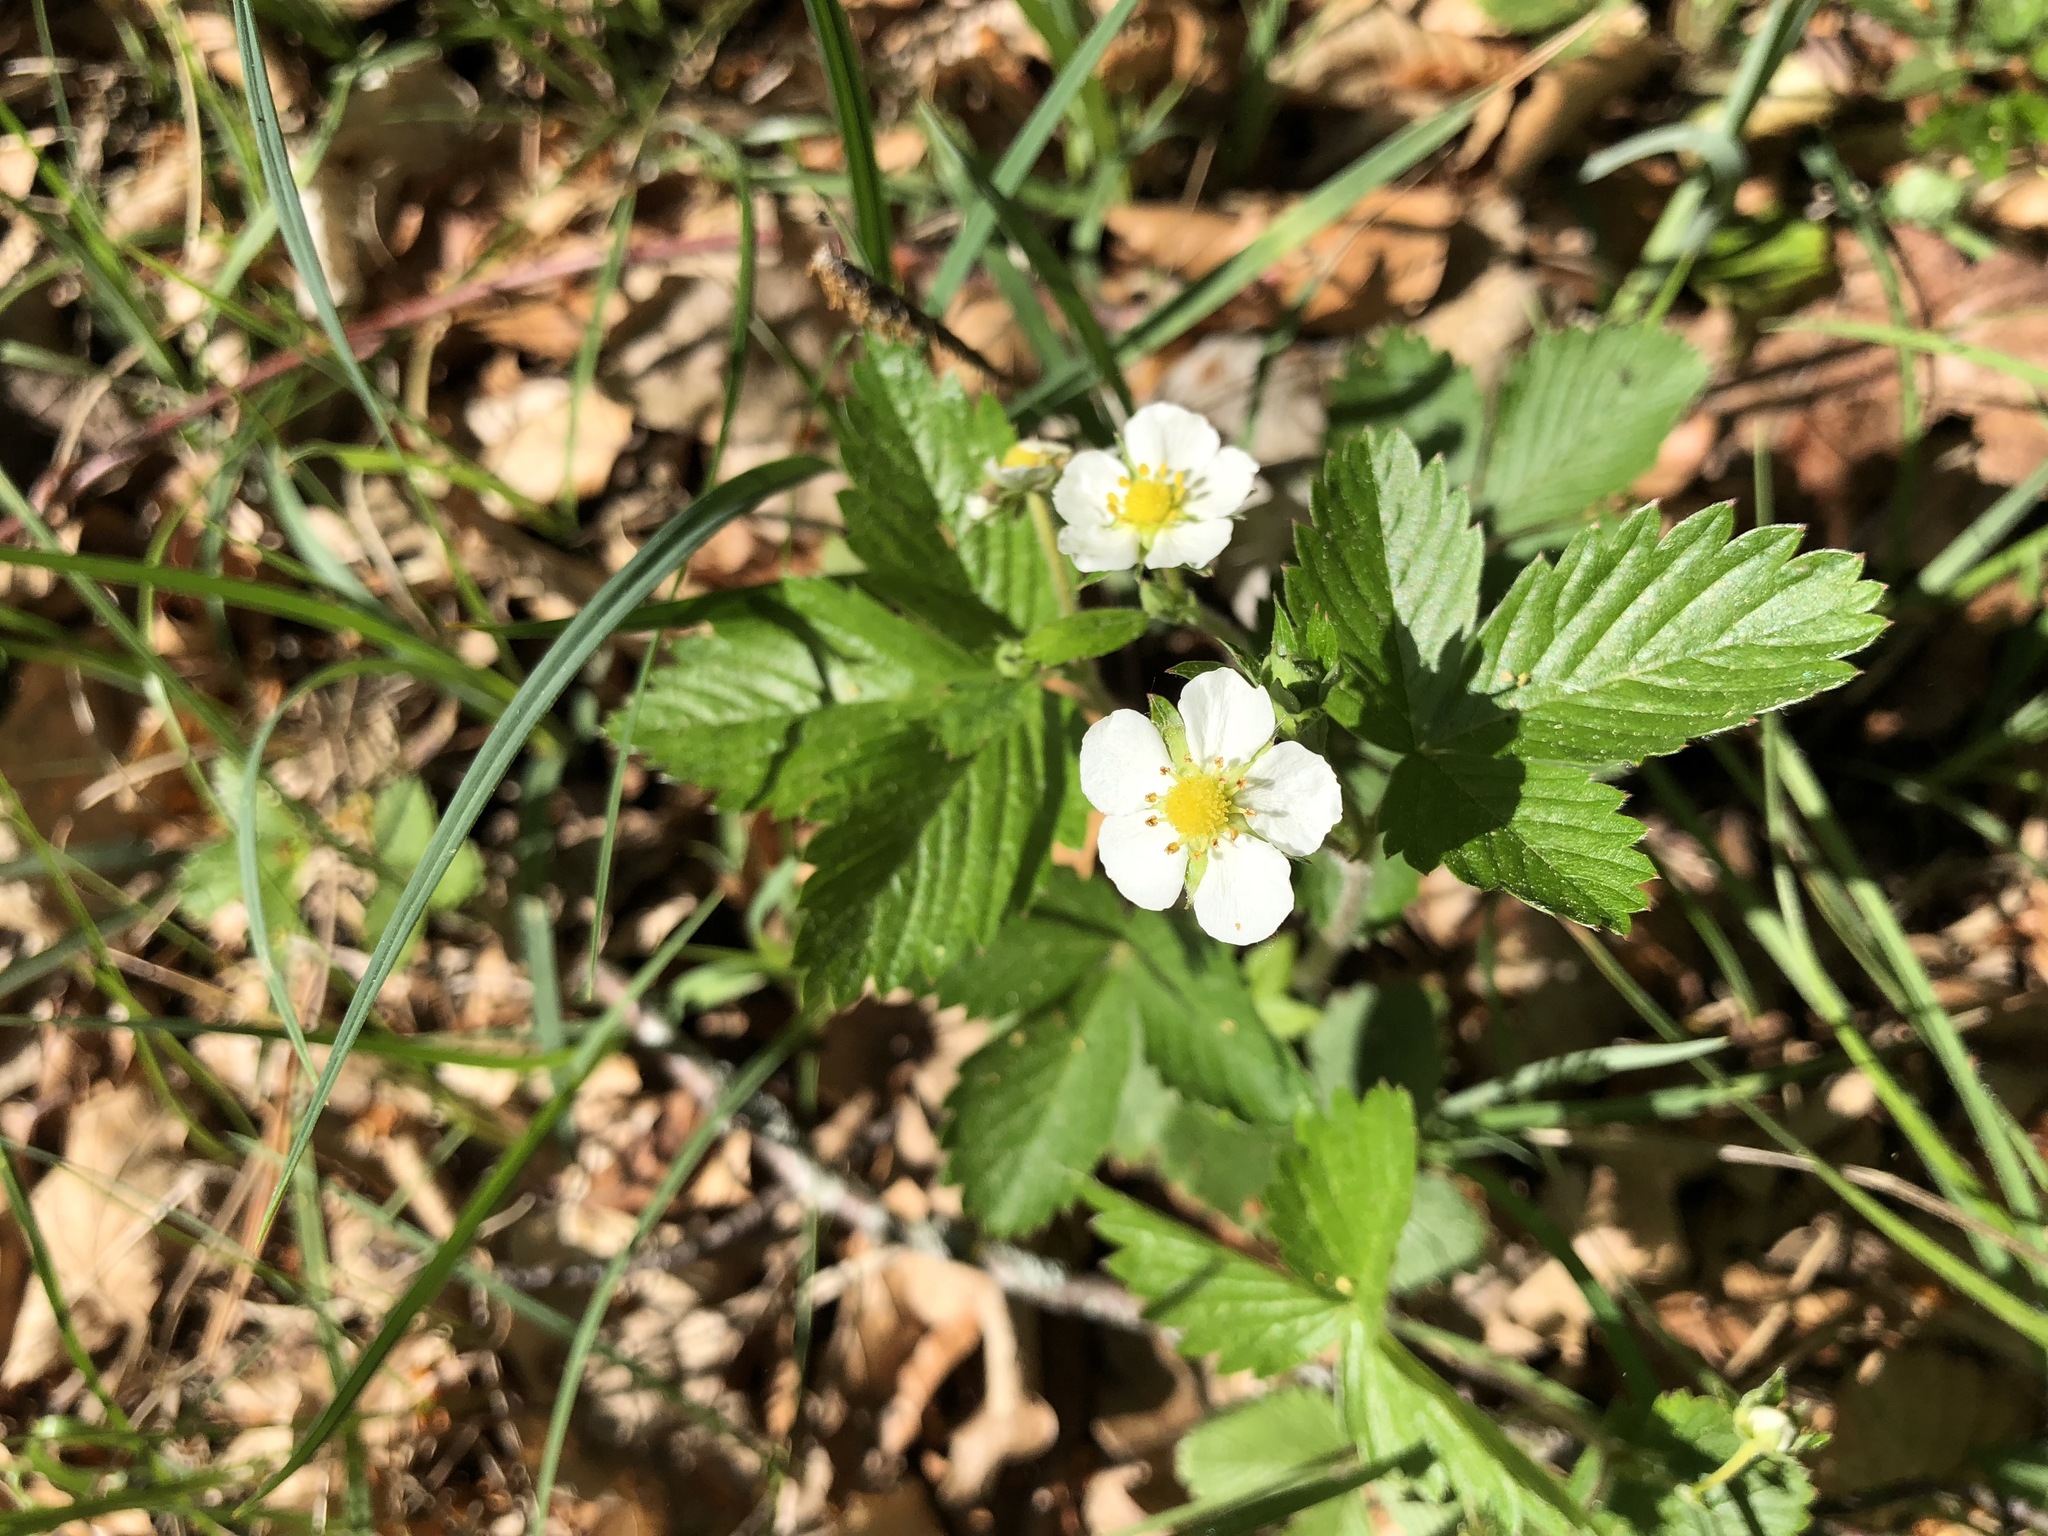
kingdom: Plantae
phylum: Tracheophyta
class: Magnoliopsida
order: Rosales
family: Rosaceae
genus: Fragaria
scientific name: Fragaria vesca
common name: Wild strawberry
